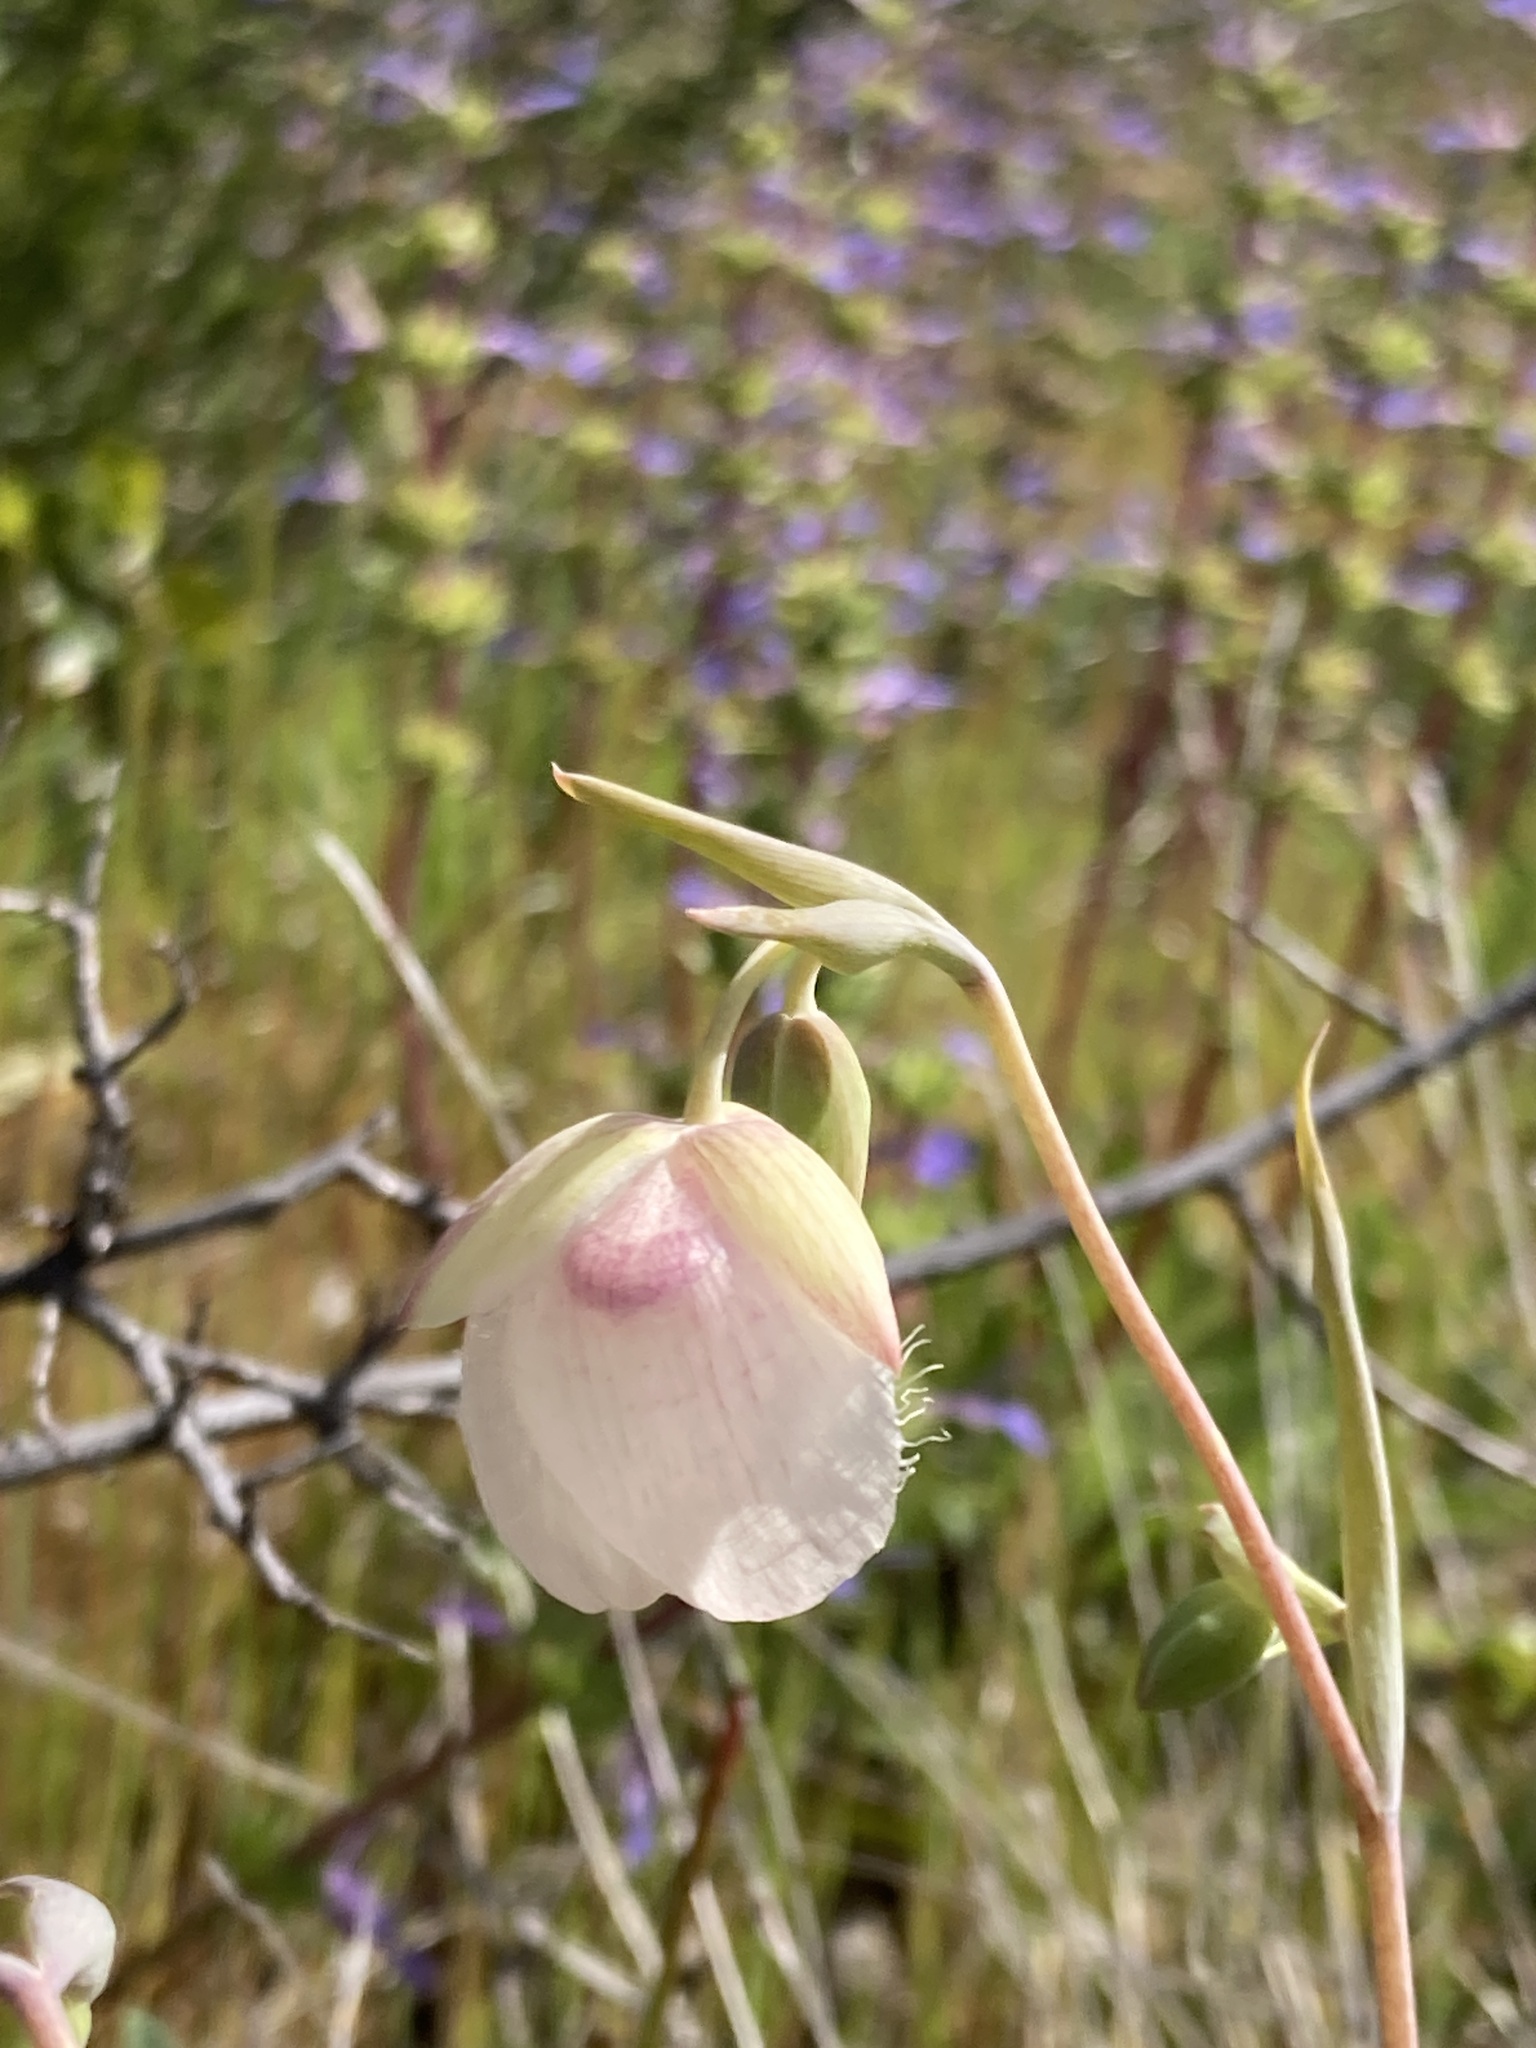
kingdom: Plantae
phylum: Tracheophyta
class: Liliopsida
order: Liliales
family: Liliaceae
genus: Calochortus
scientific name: Calochortus albus
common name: Fairy-lantern
